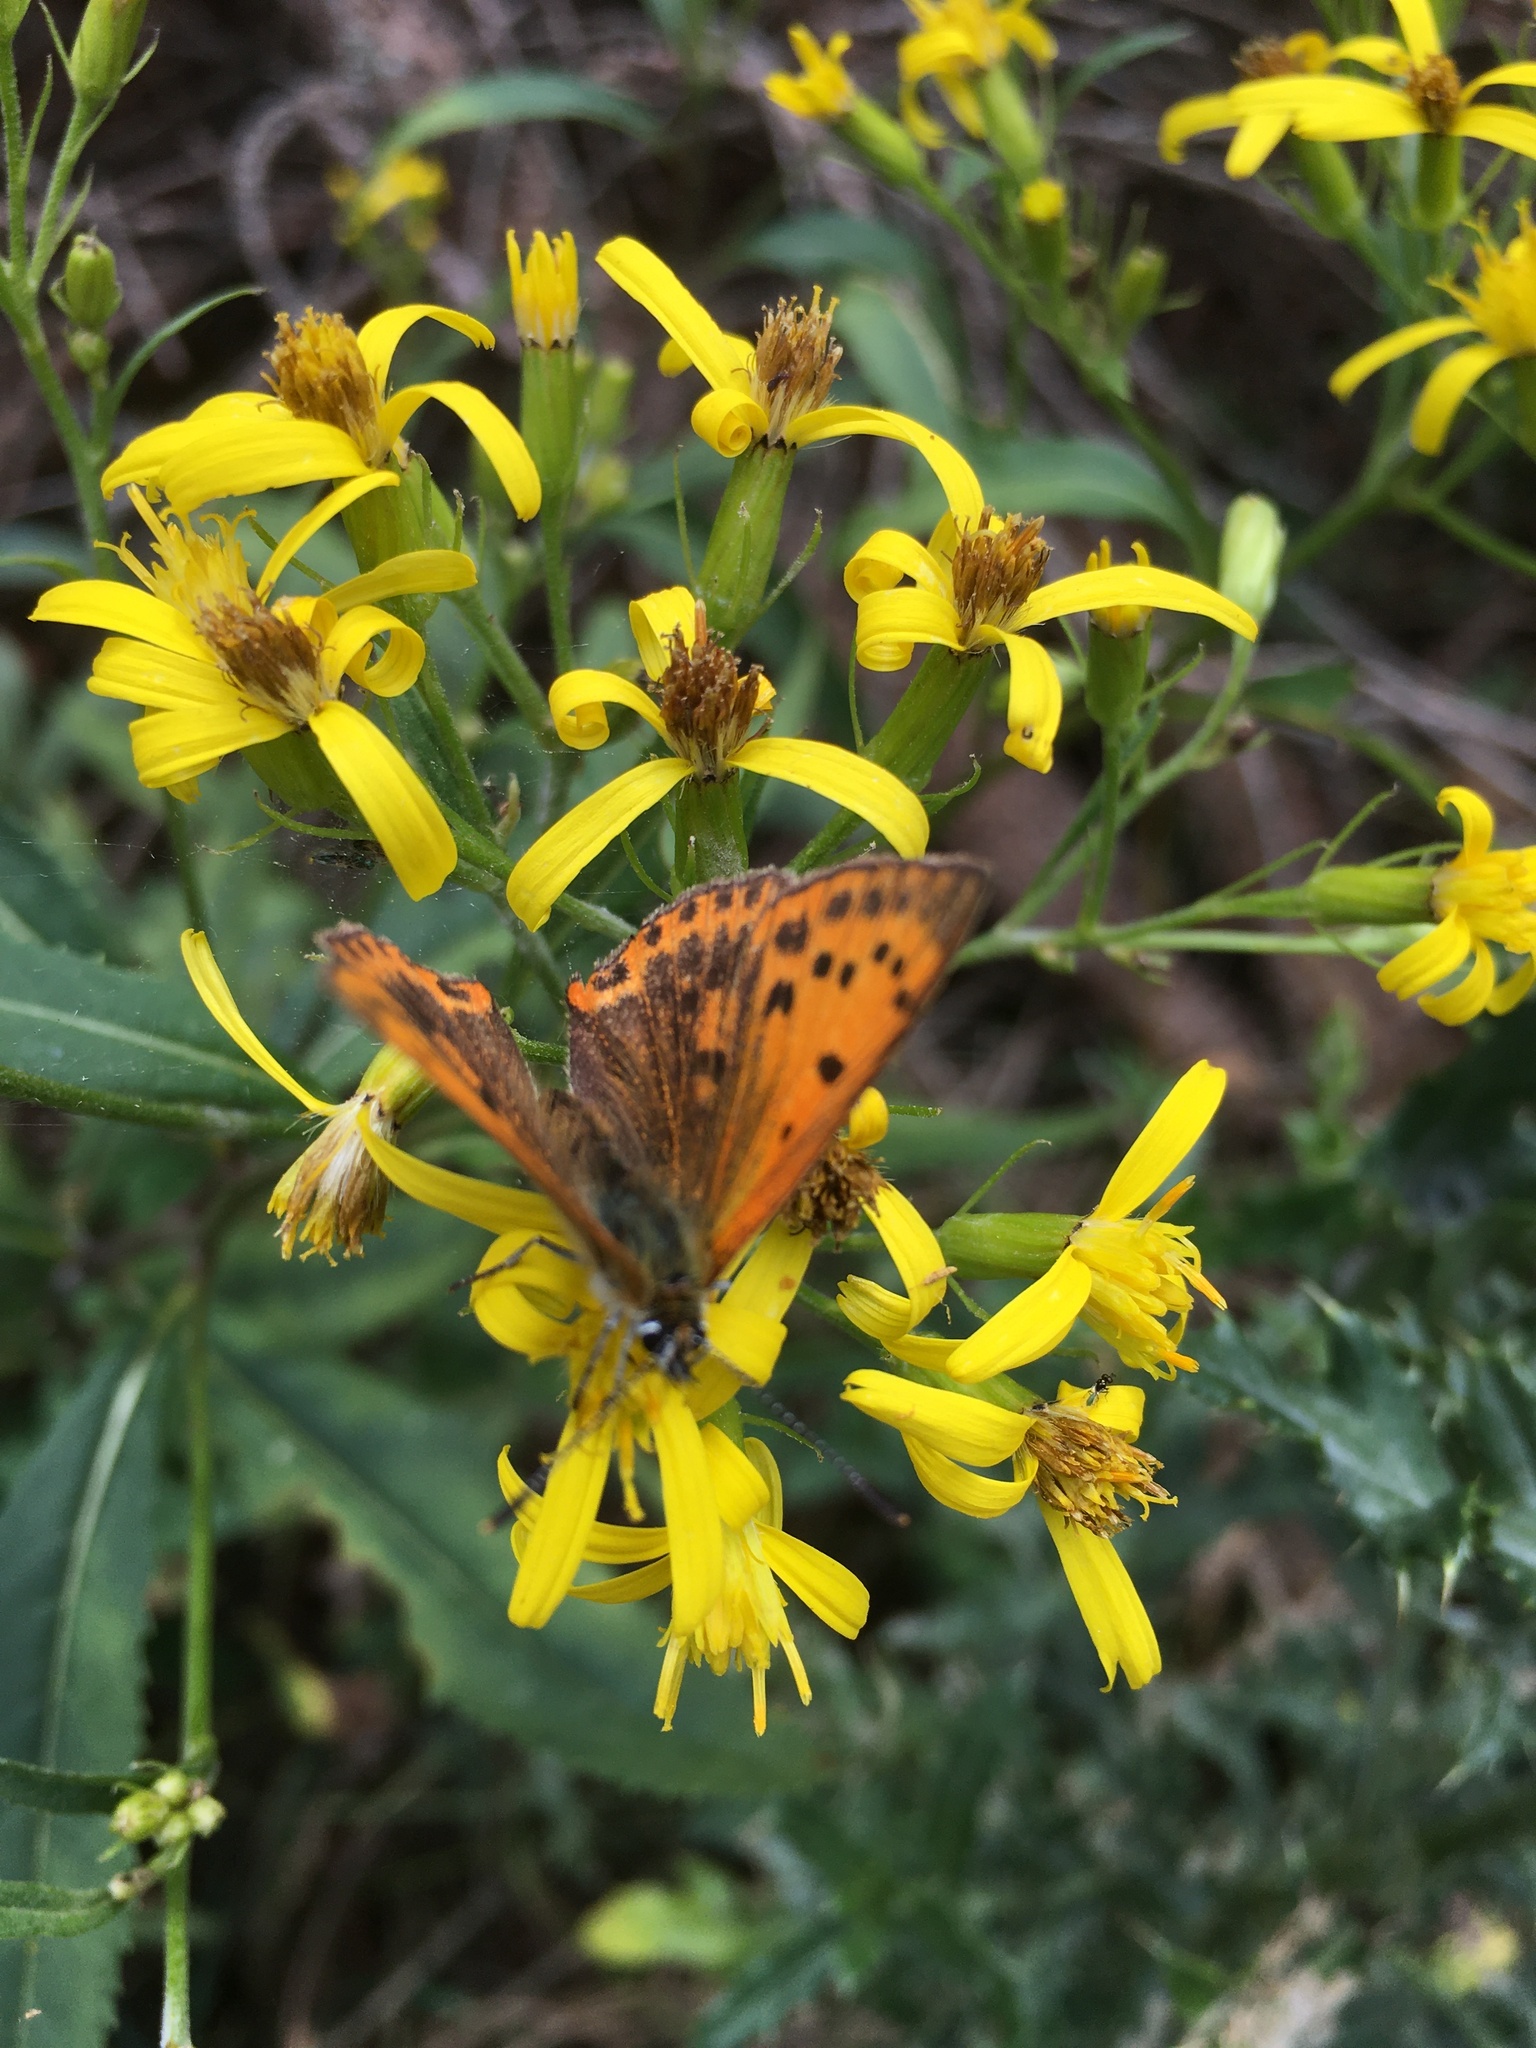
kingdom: Animalia
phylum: Arthropoda
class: Insecta
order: Lepidoptera
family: Lycaenidae
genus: Lycaena
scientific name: Lycaena virgaureae
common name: Scarce copper
